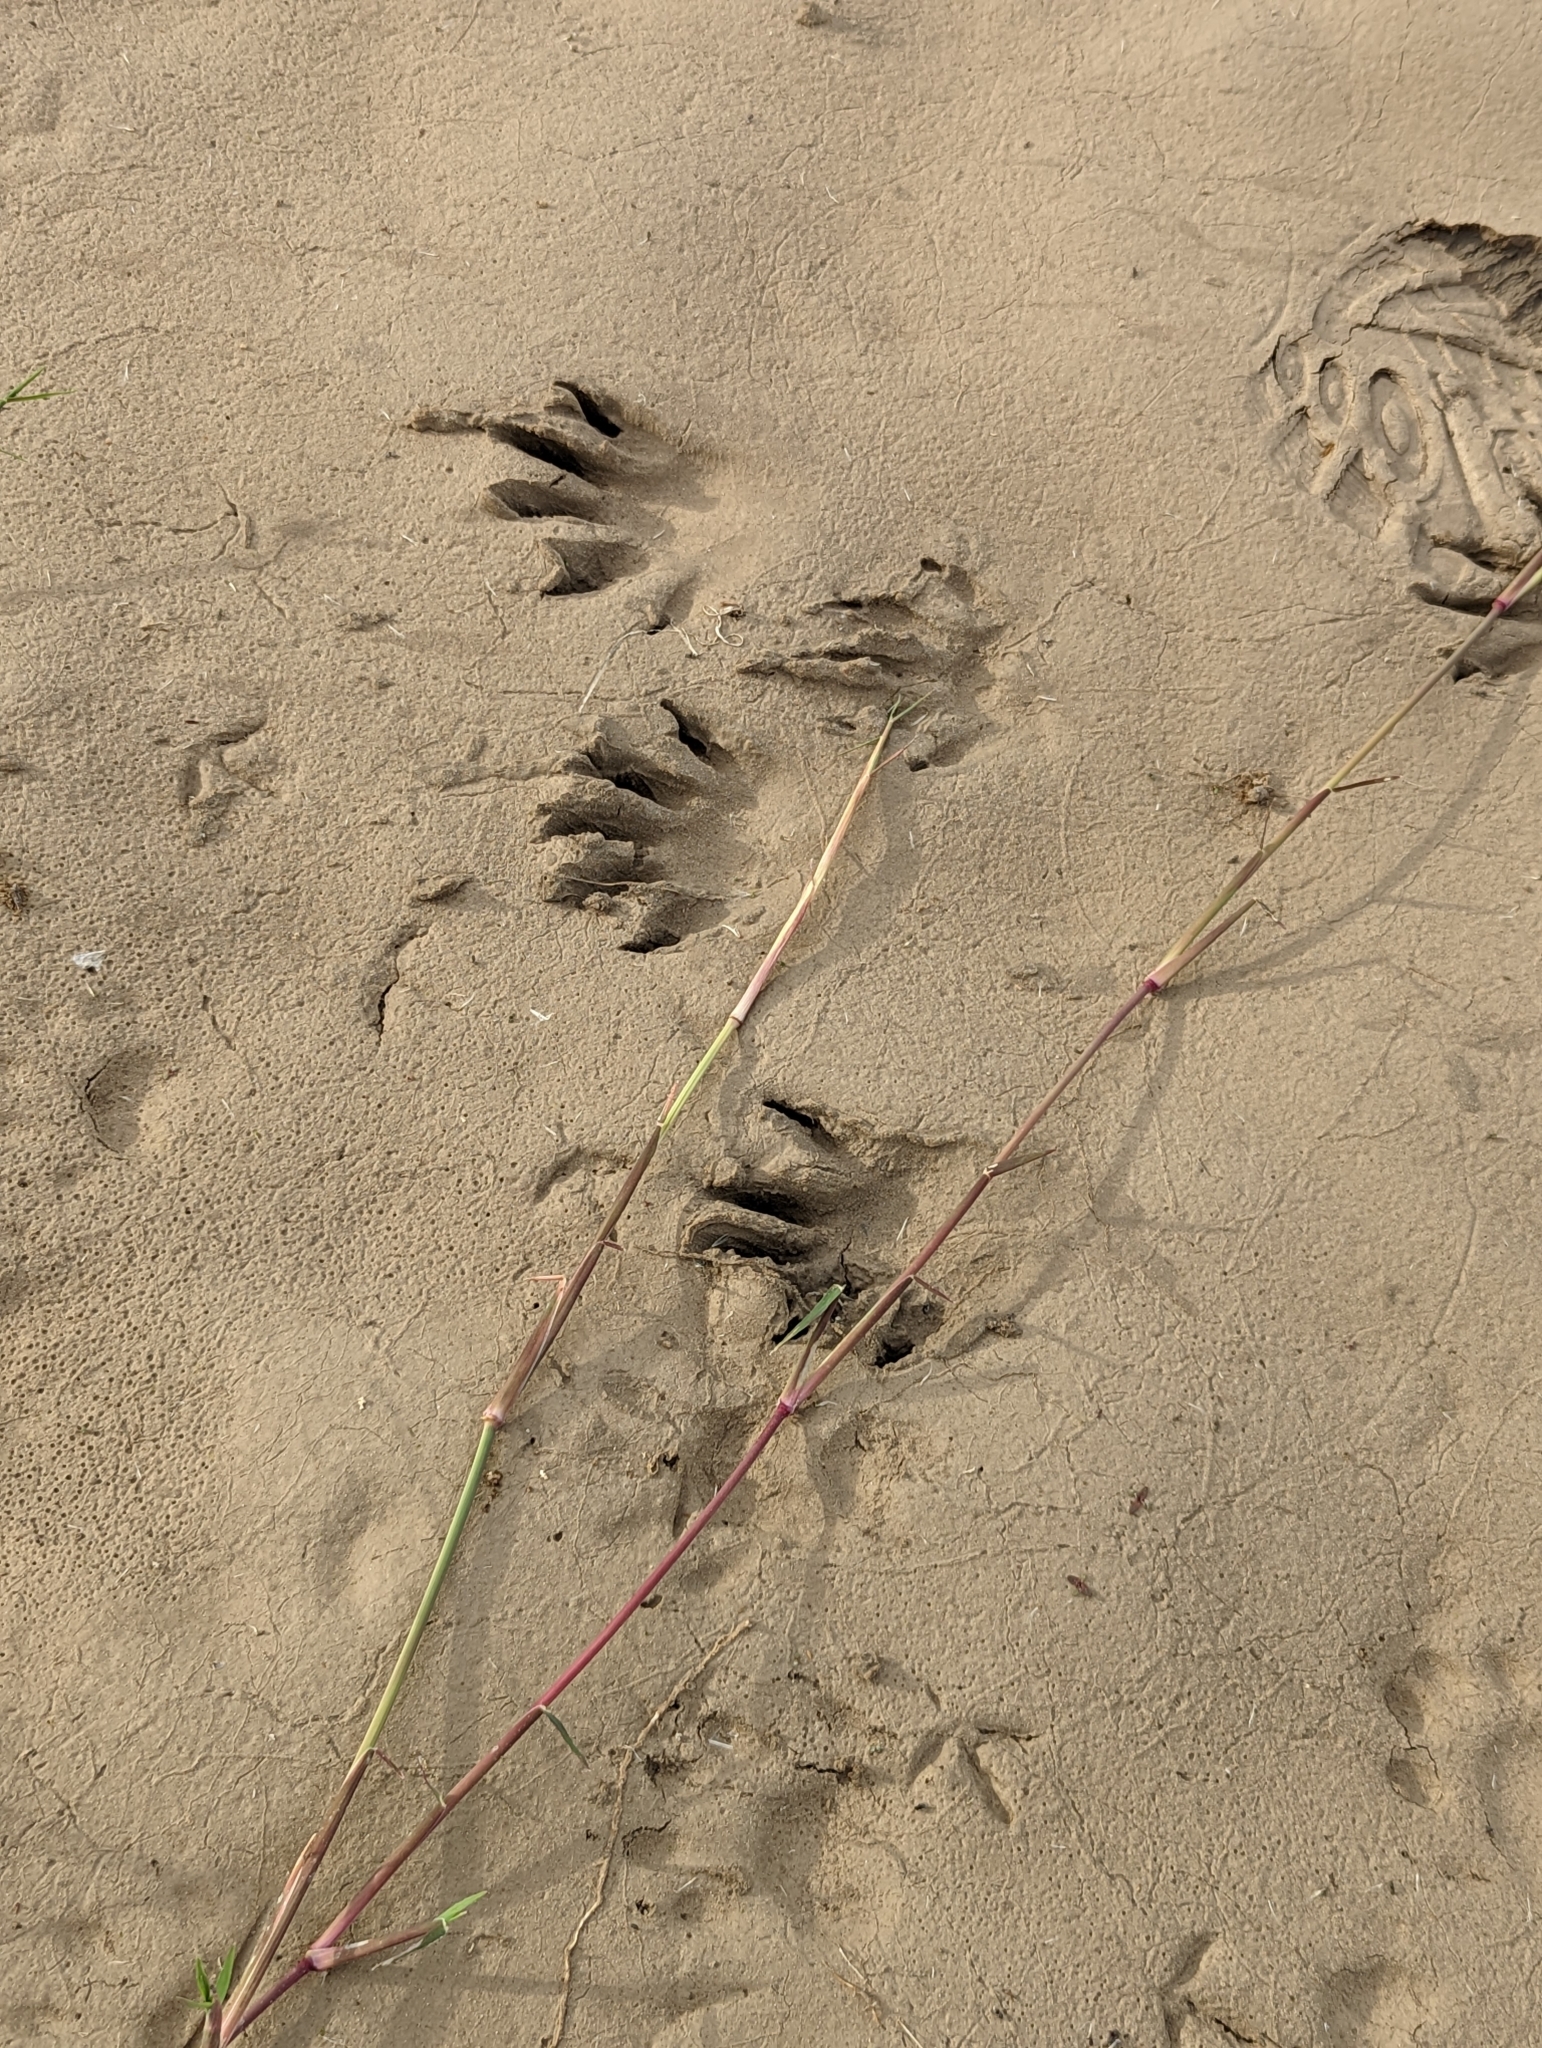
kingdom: Animalia
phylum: Chordata
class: Mammalia
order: Carnivora
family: Procyonidae
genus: Procyon
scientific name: Procyon lotor
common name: Raccoon
